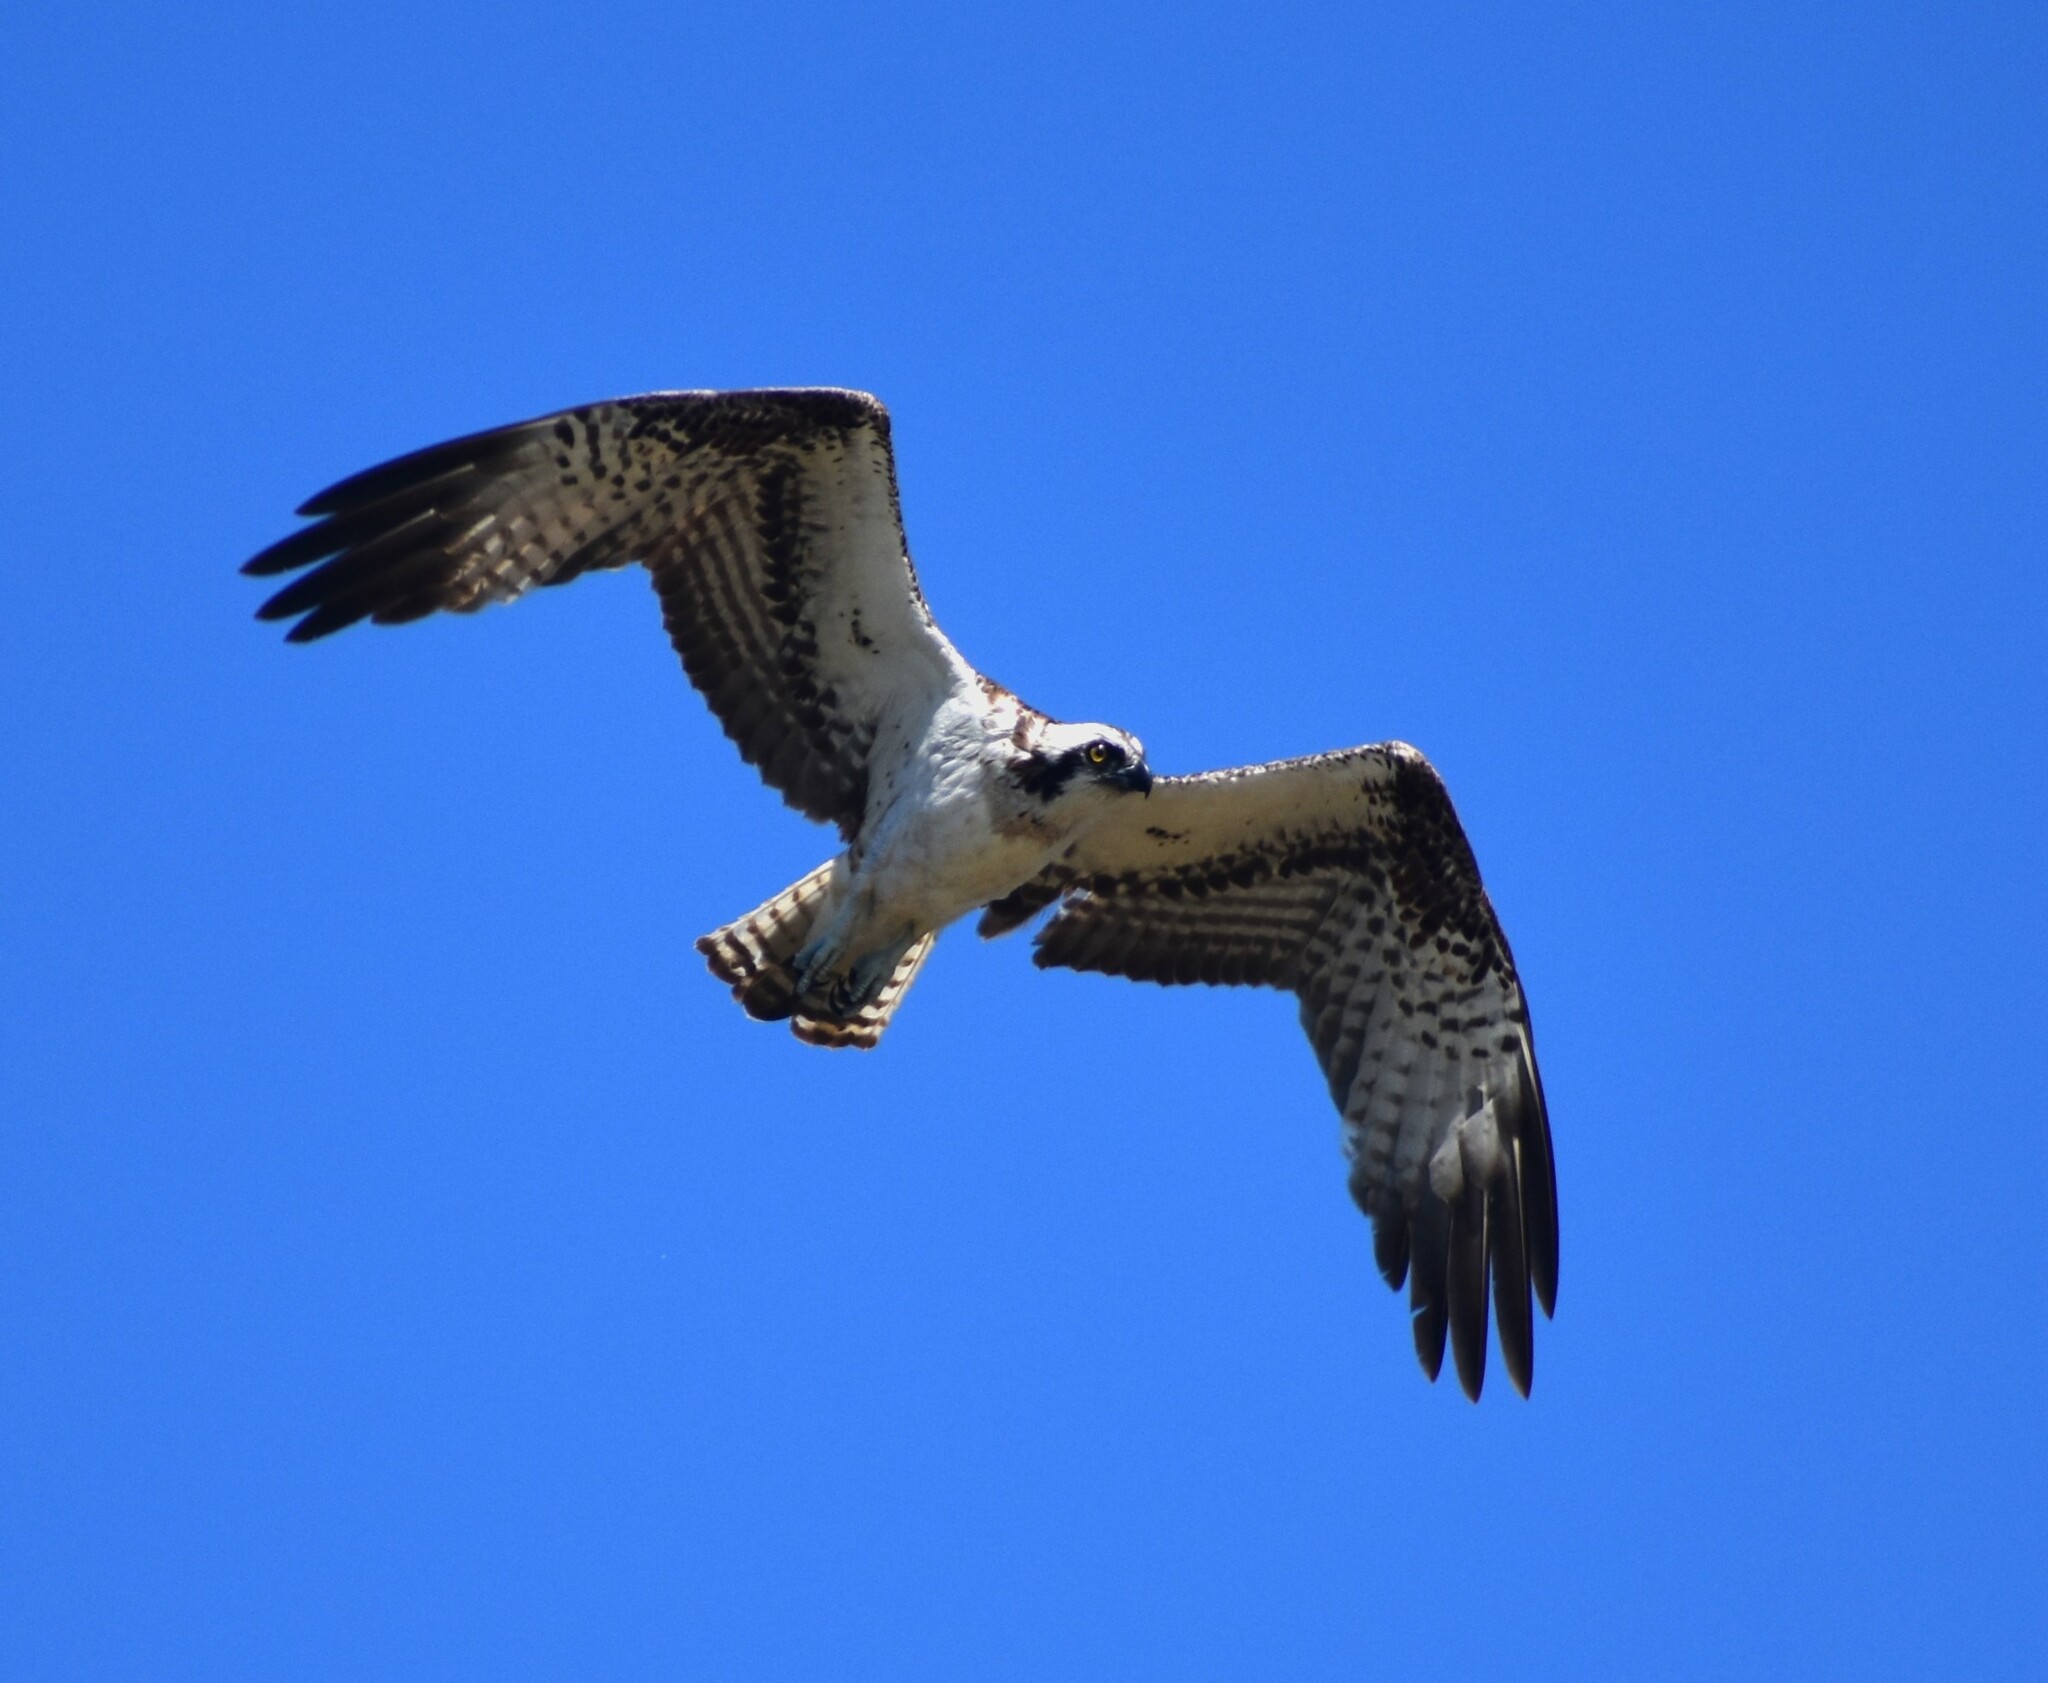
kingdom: Animalia
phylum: Chordata
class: Aves
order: Accipitriformes
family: Pandionidae
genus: Pandion
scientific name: Pandion haliaetus
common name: Osprey
